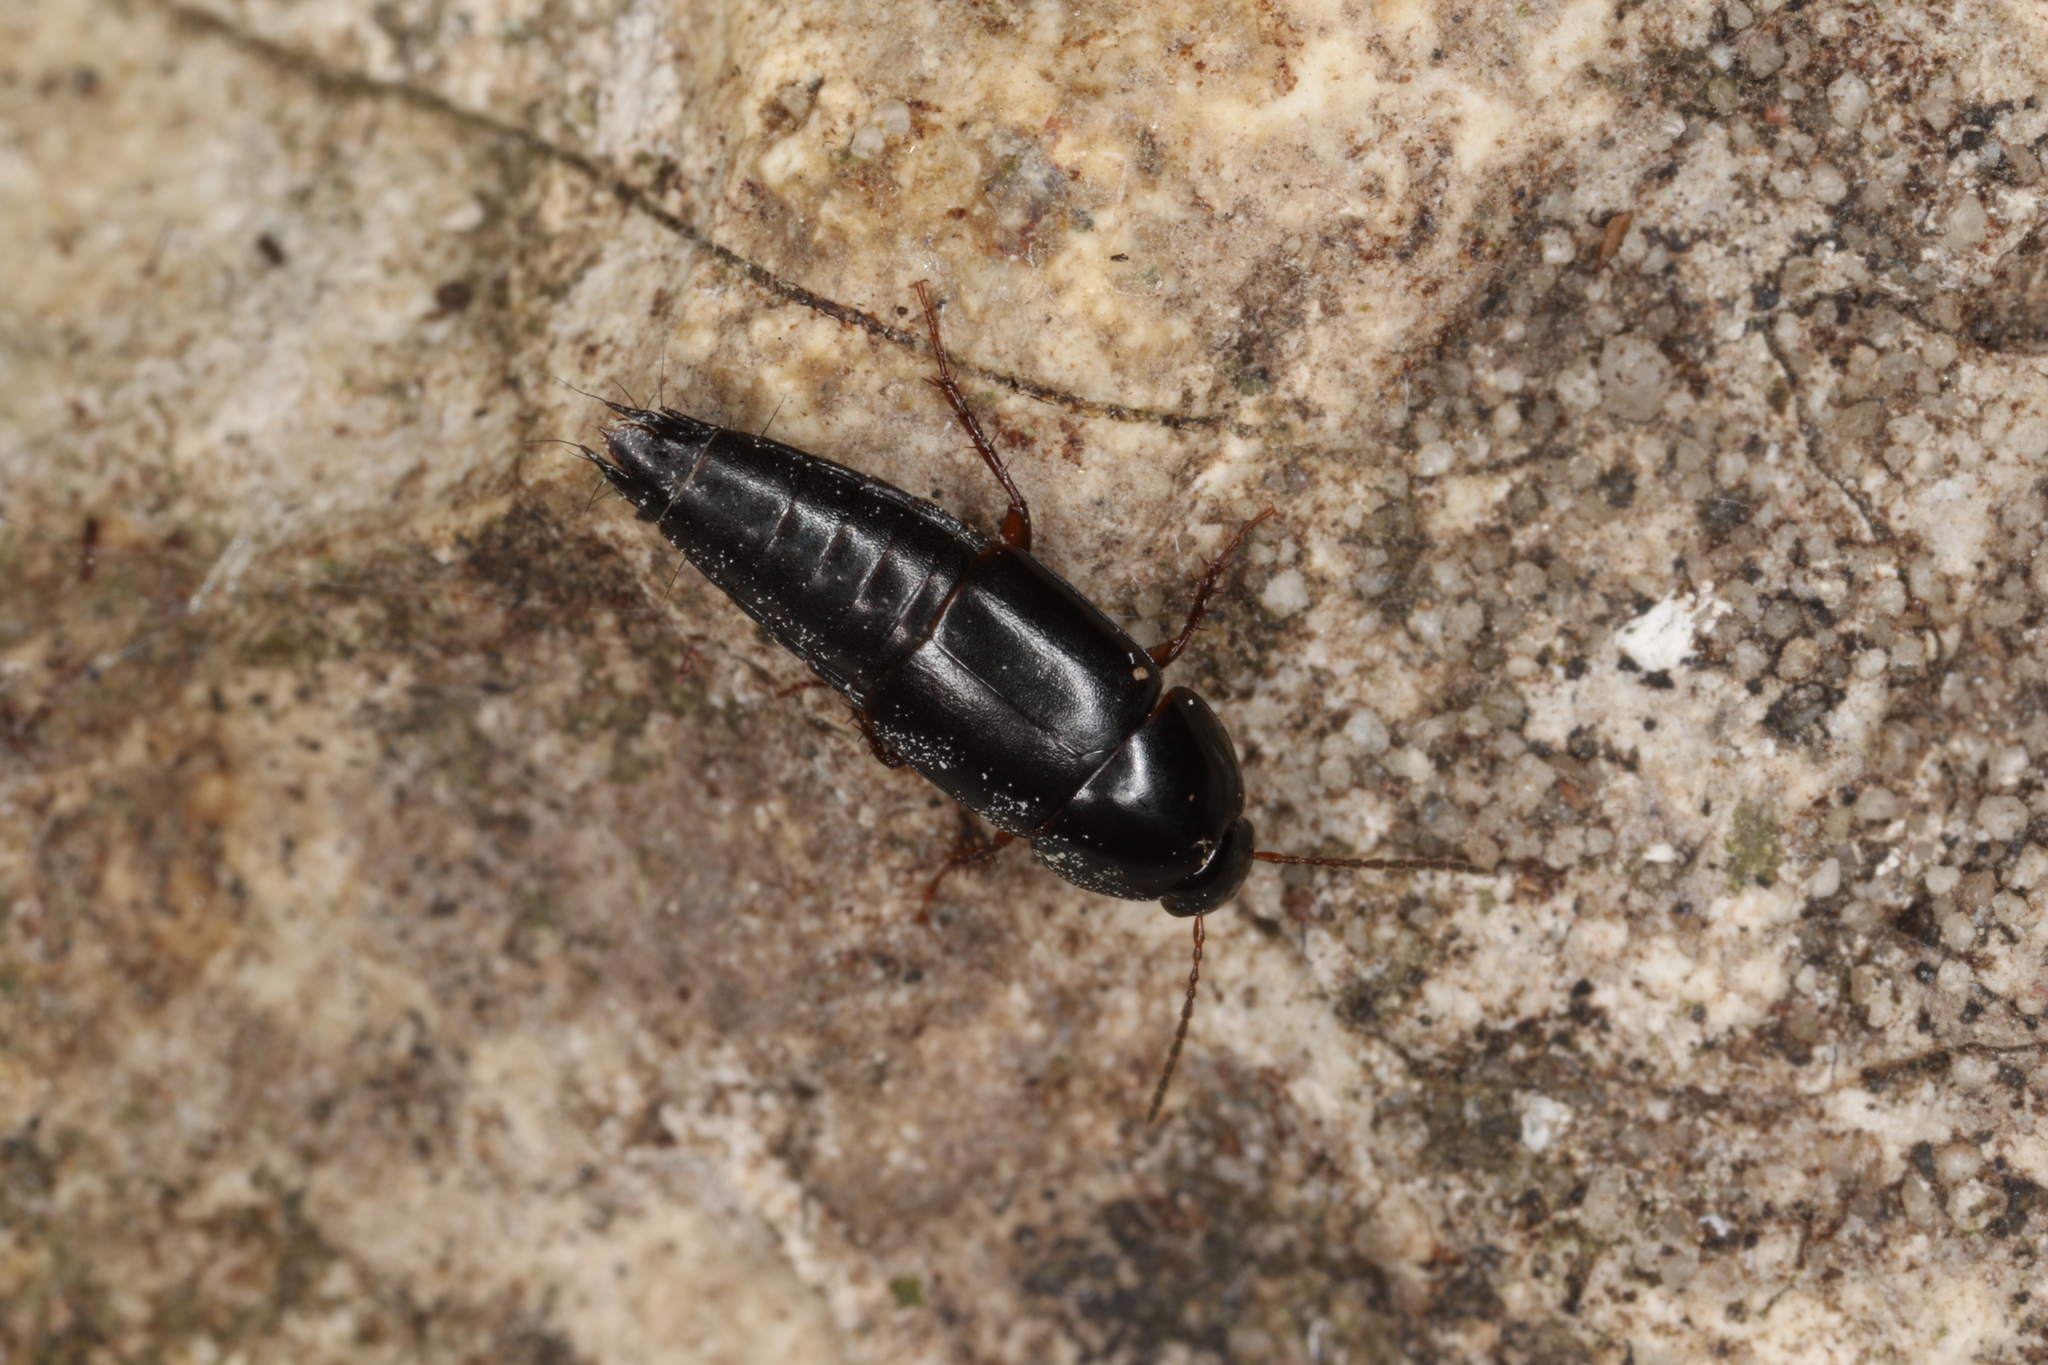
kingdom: Animalia
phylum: Arthropoda
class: Insecta
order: Coleoptera
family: Staphylinidae
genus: Tachinus
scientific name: Tachinus rufipes
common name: Rove beetle
